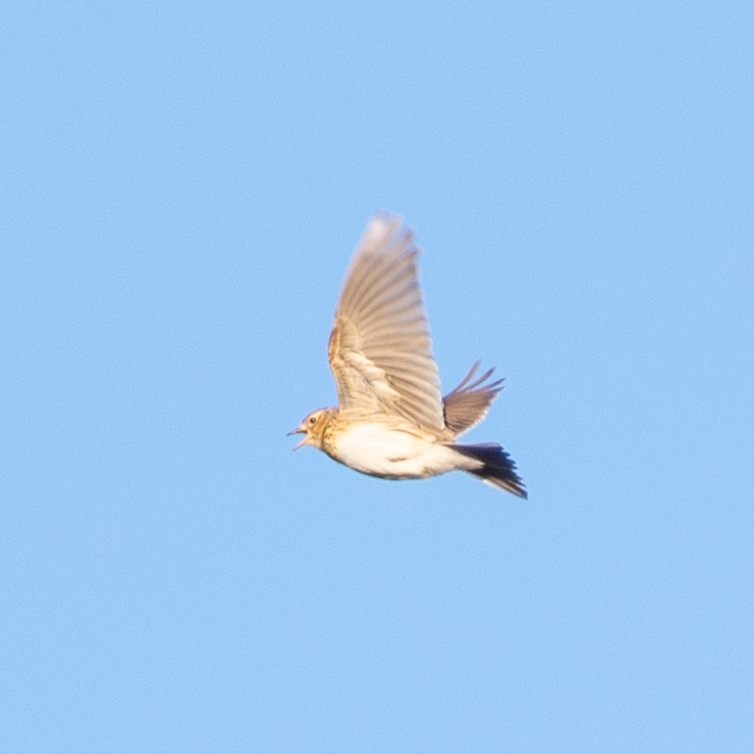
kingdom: Animalia
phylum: Chordata
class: Aves
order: Passeriformes
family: Alaudidae
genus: Alauda
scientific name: Alauda arvensis
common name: Eurasian skylark
